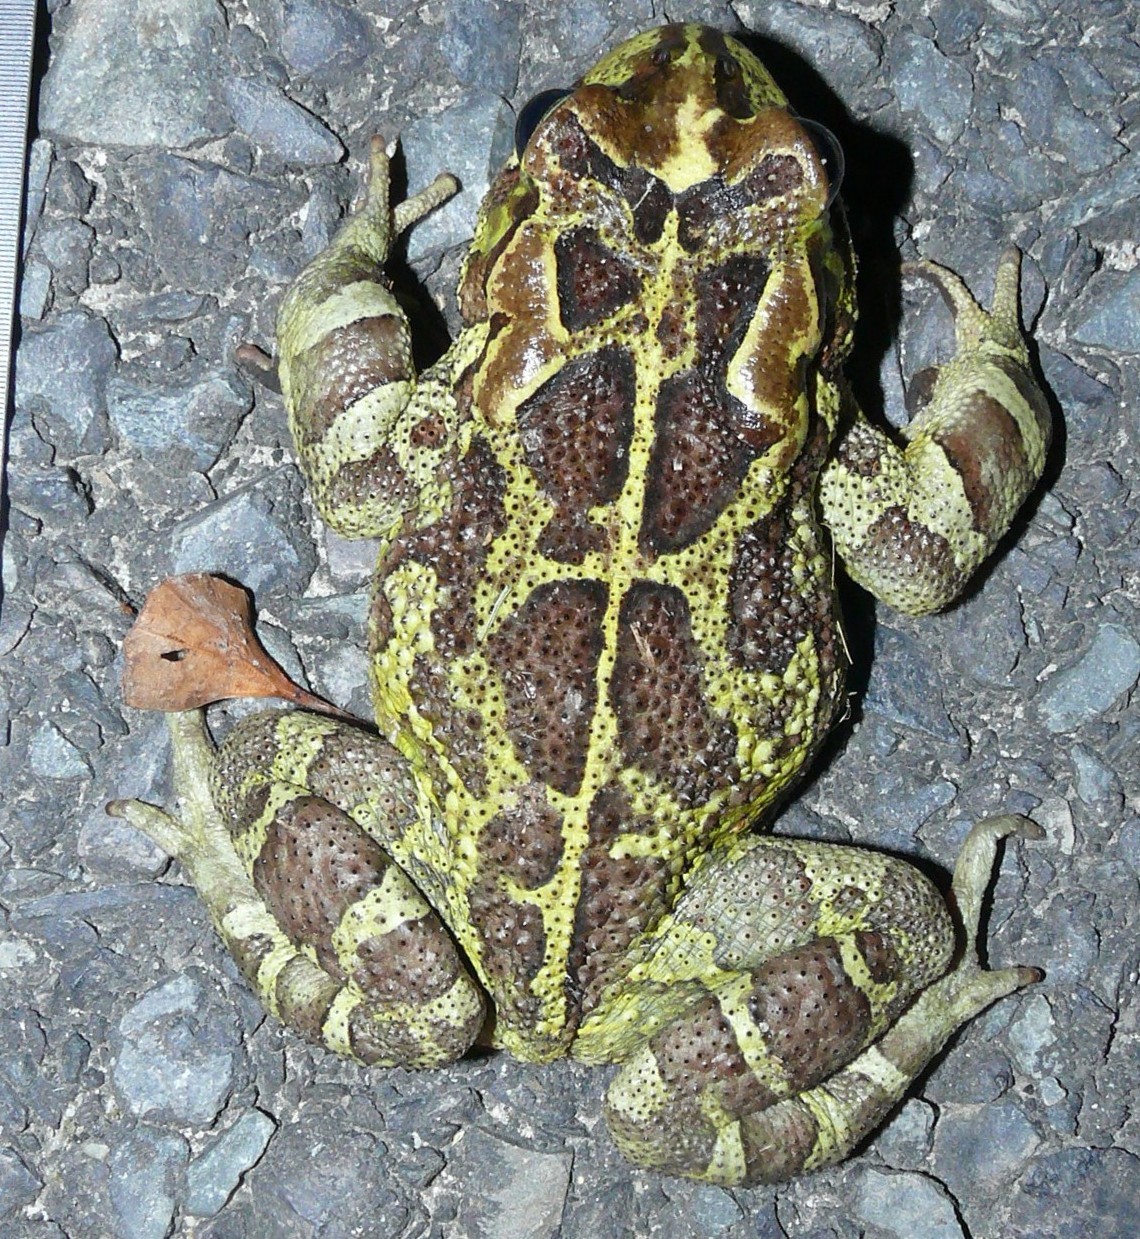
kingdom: Animalia
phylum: Chordata
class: Amphibia
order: Anura
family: Bufonidae
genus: Sclerophrys
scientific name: Sclerophrys pantherina
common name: Panther toad
